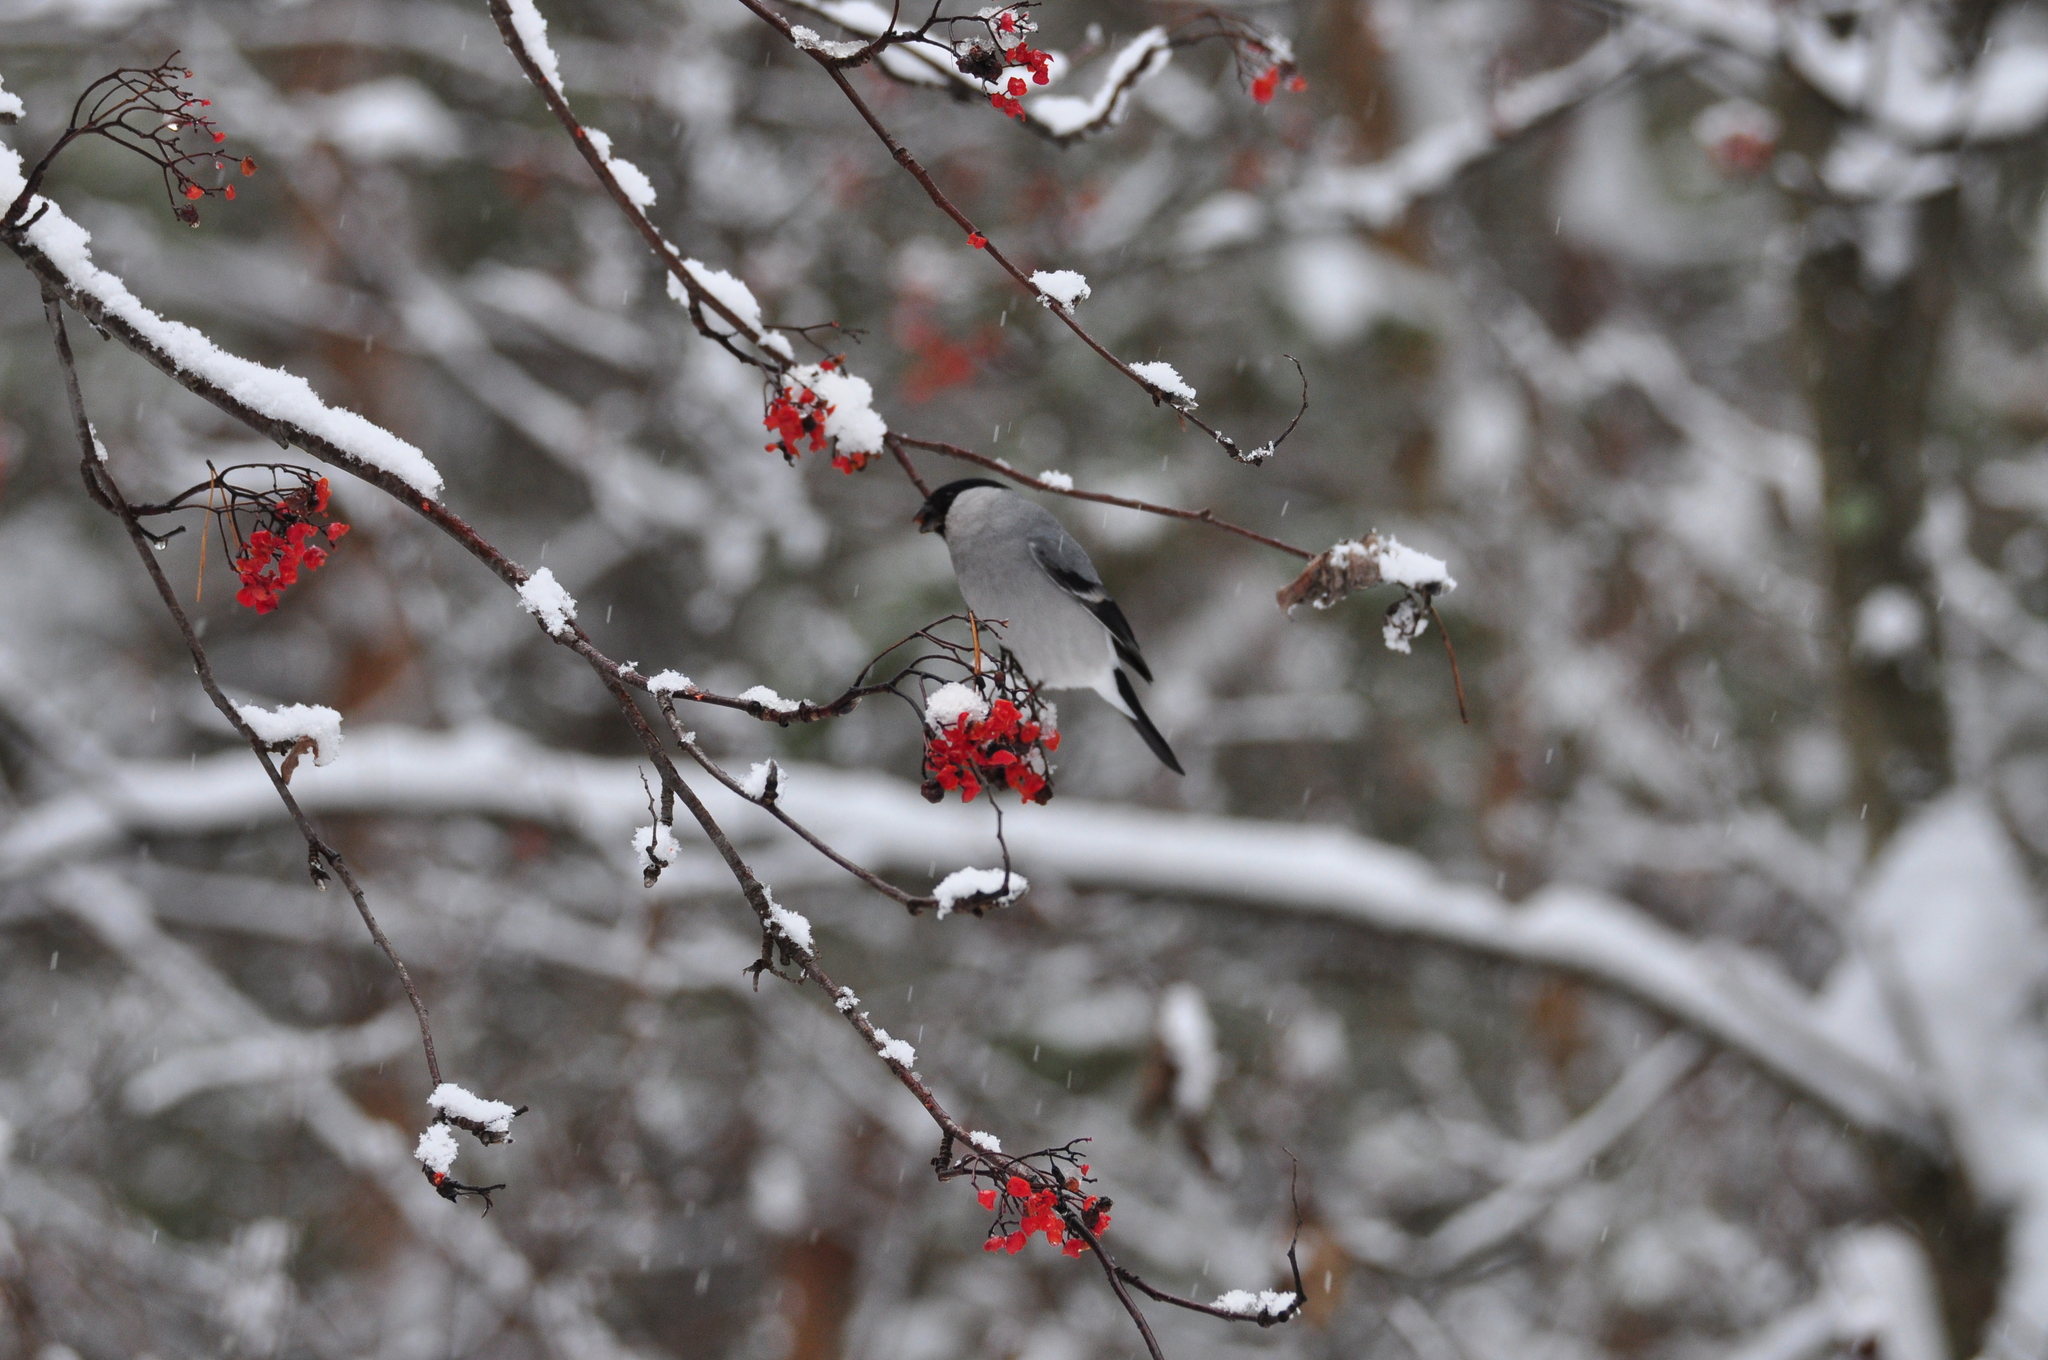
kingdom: Animalia
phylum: Chordata
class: Aves
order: Passeriformes
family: Fringillidae
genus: Pyrrhula
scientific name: Pyrrhula pyrrhula
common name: Eurasian bullfinch
